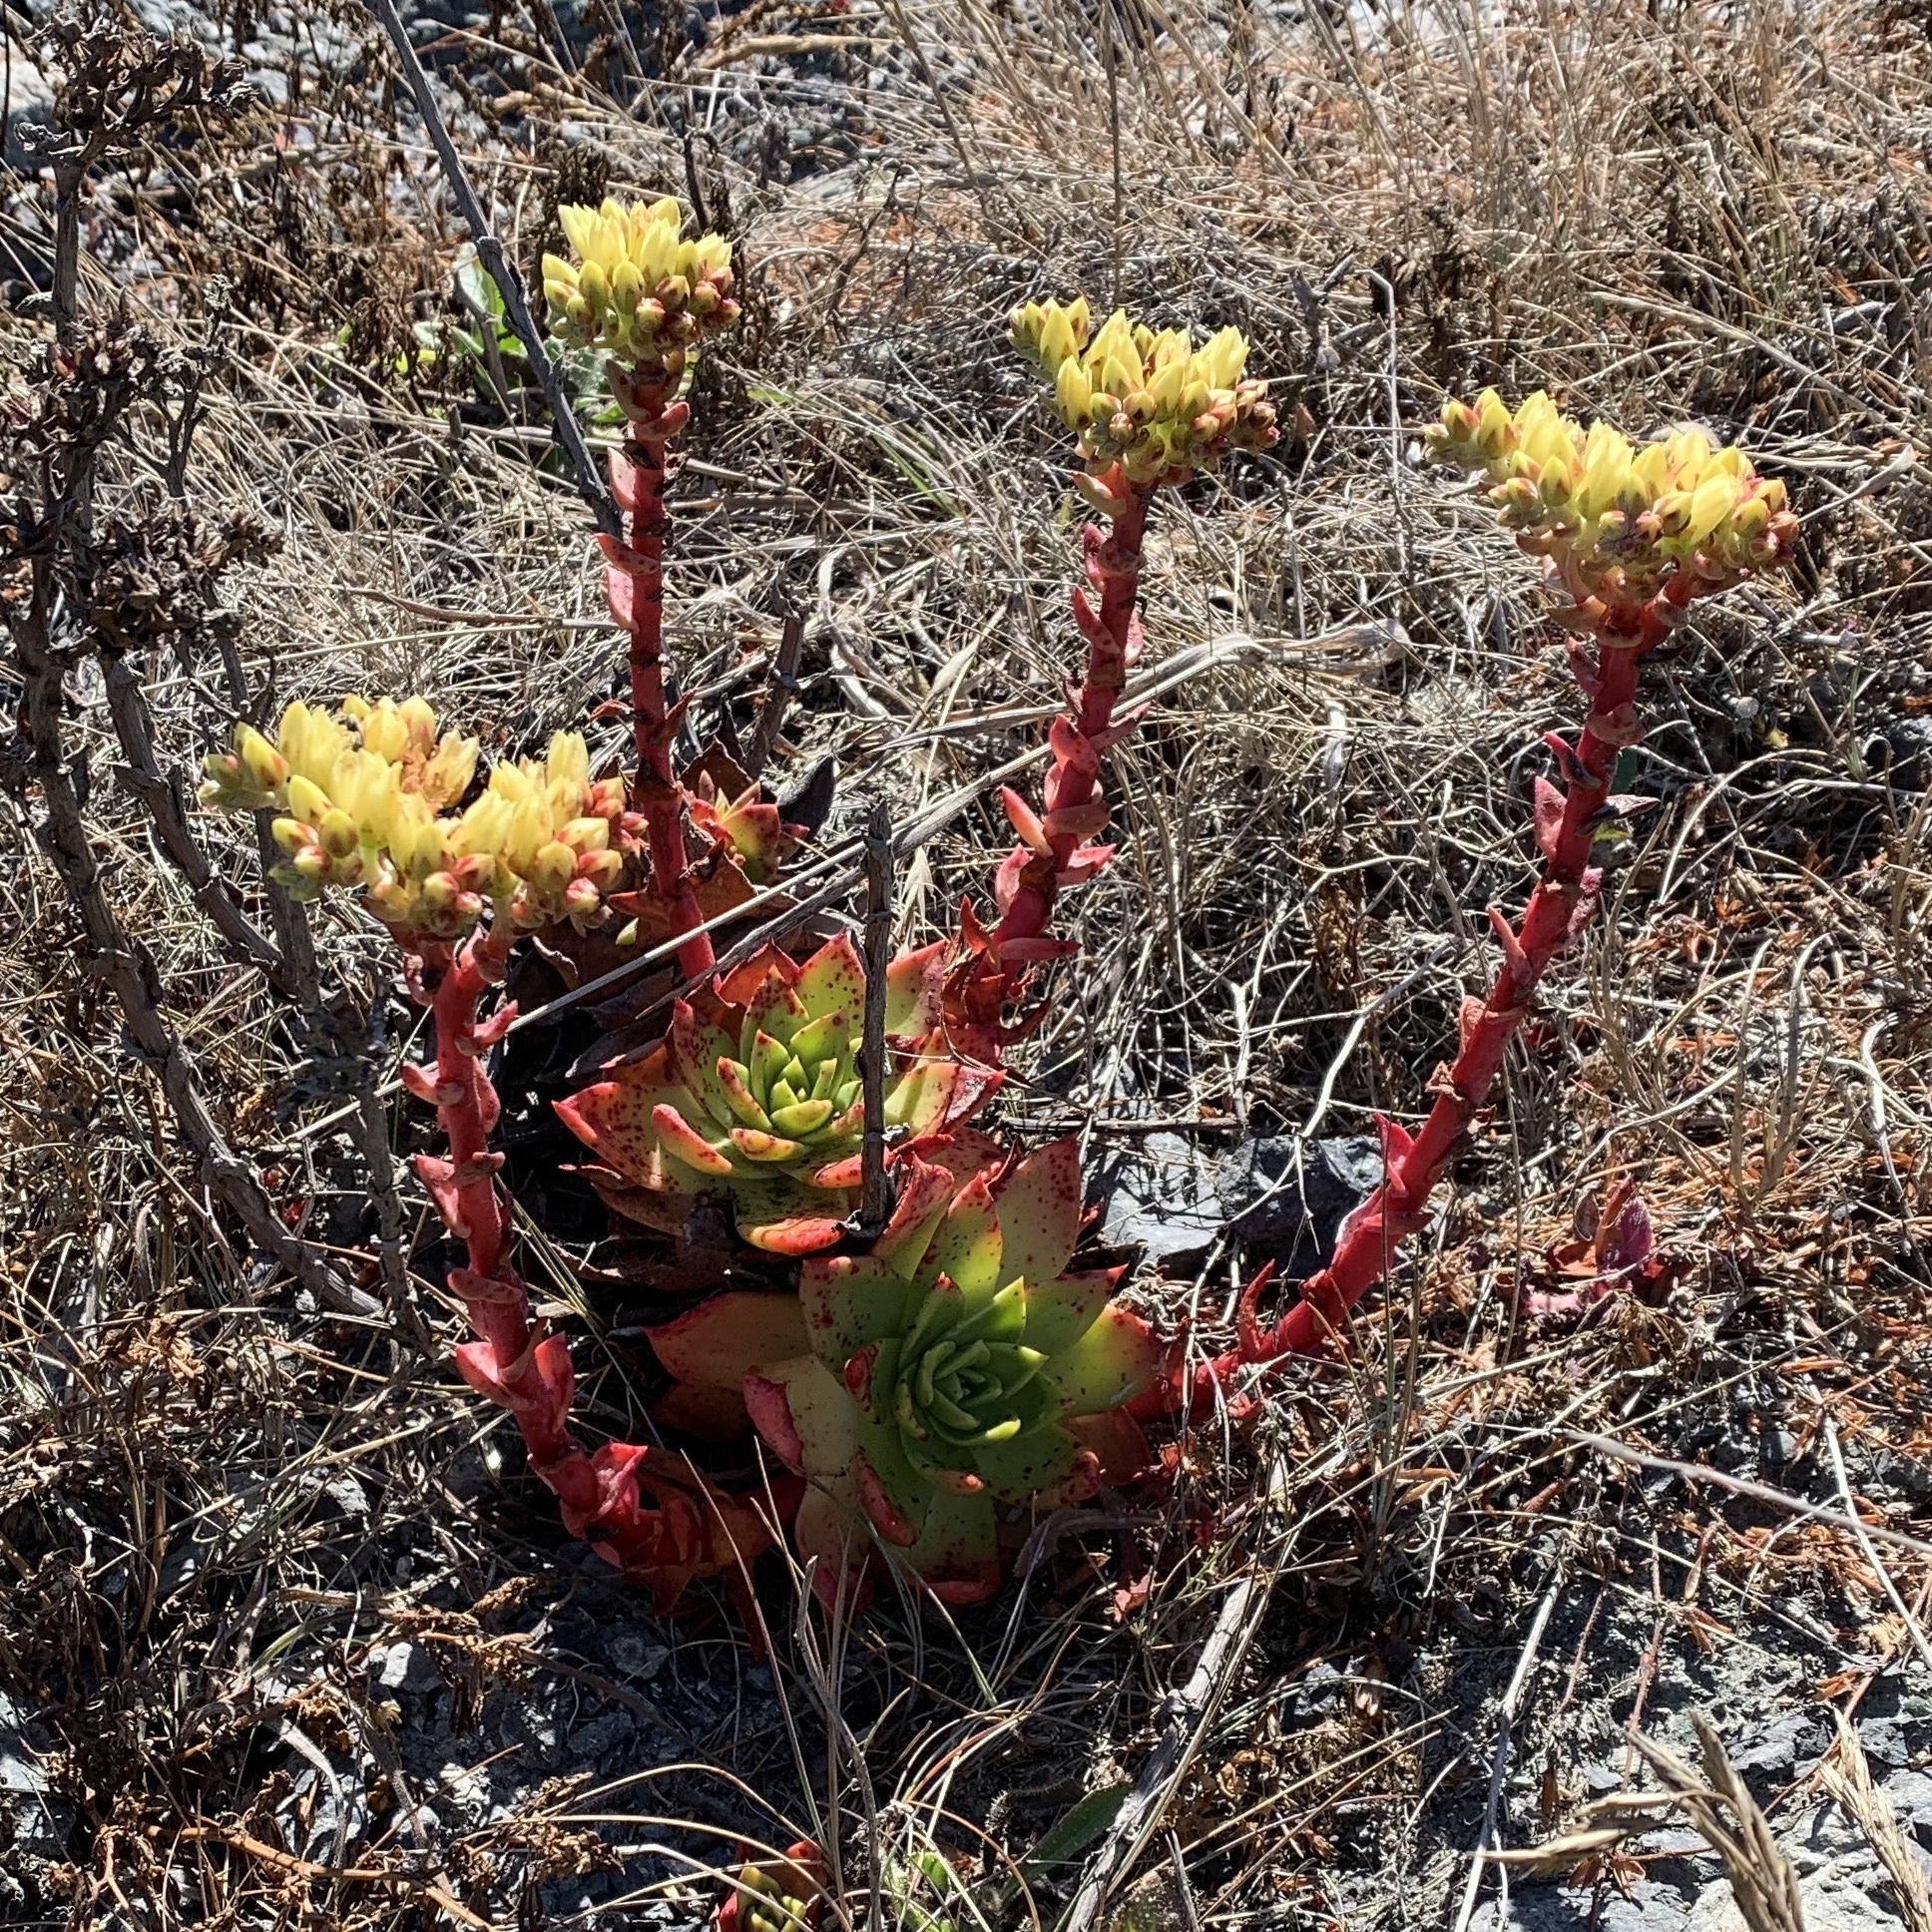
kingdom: Plantae
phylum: Tracheophyta
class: Magnoliopsida
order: Saxifragales
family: Crassulaceae
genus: Dudleya
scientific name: Dudleya farinosa
